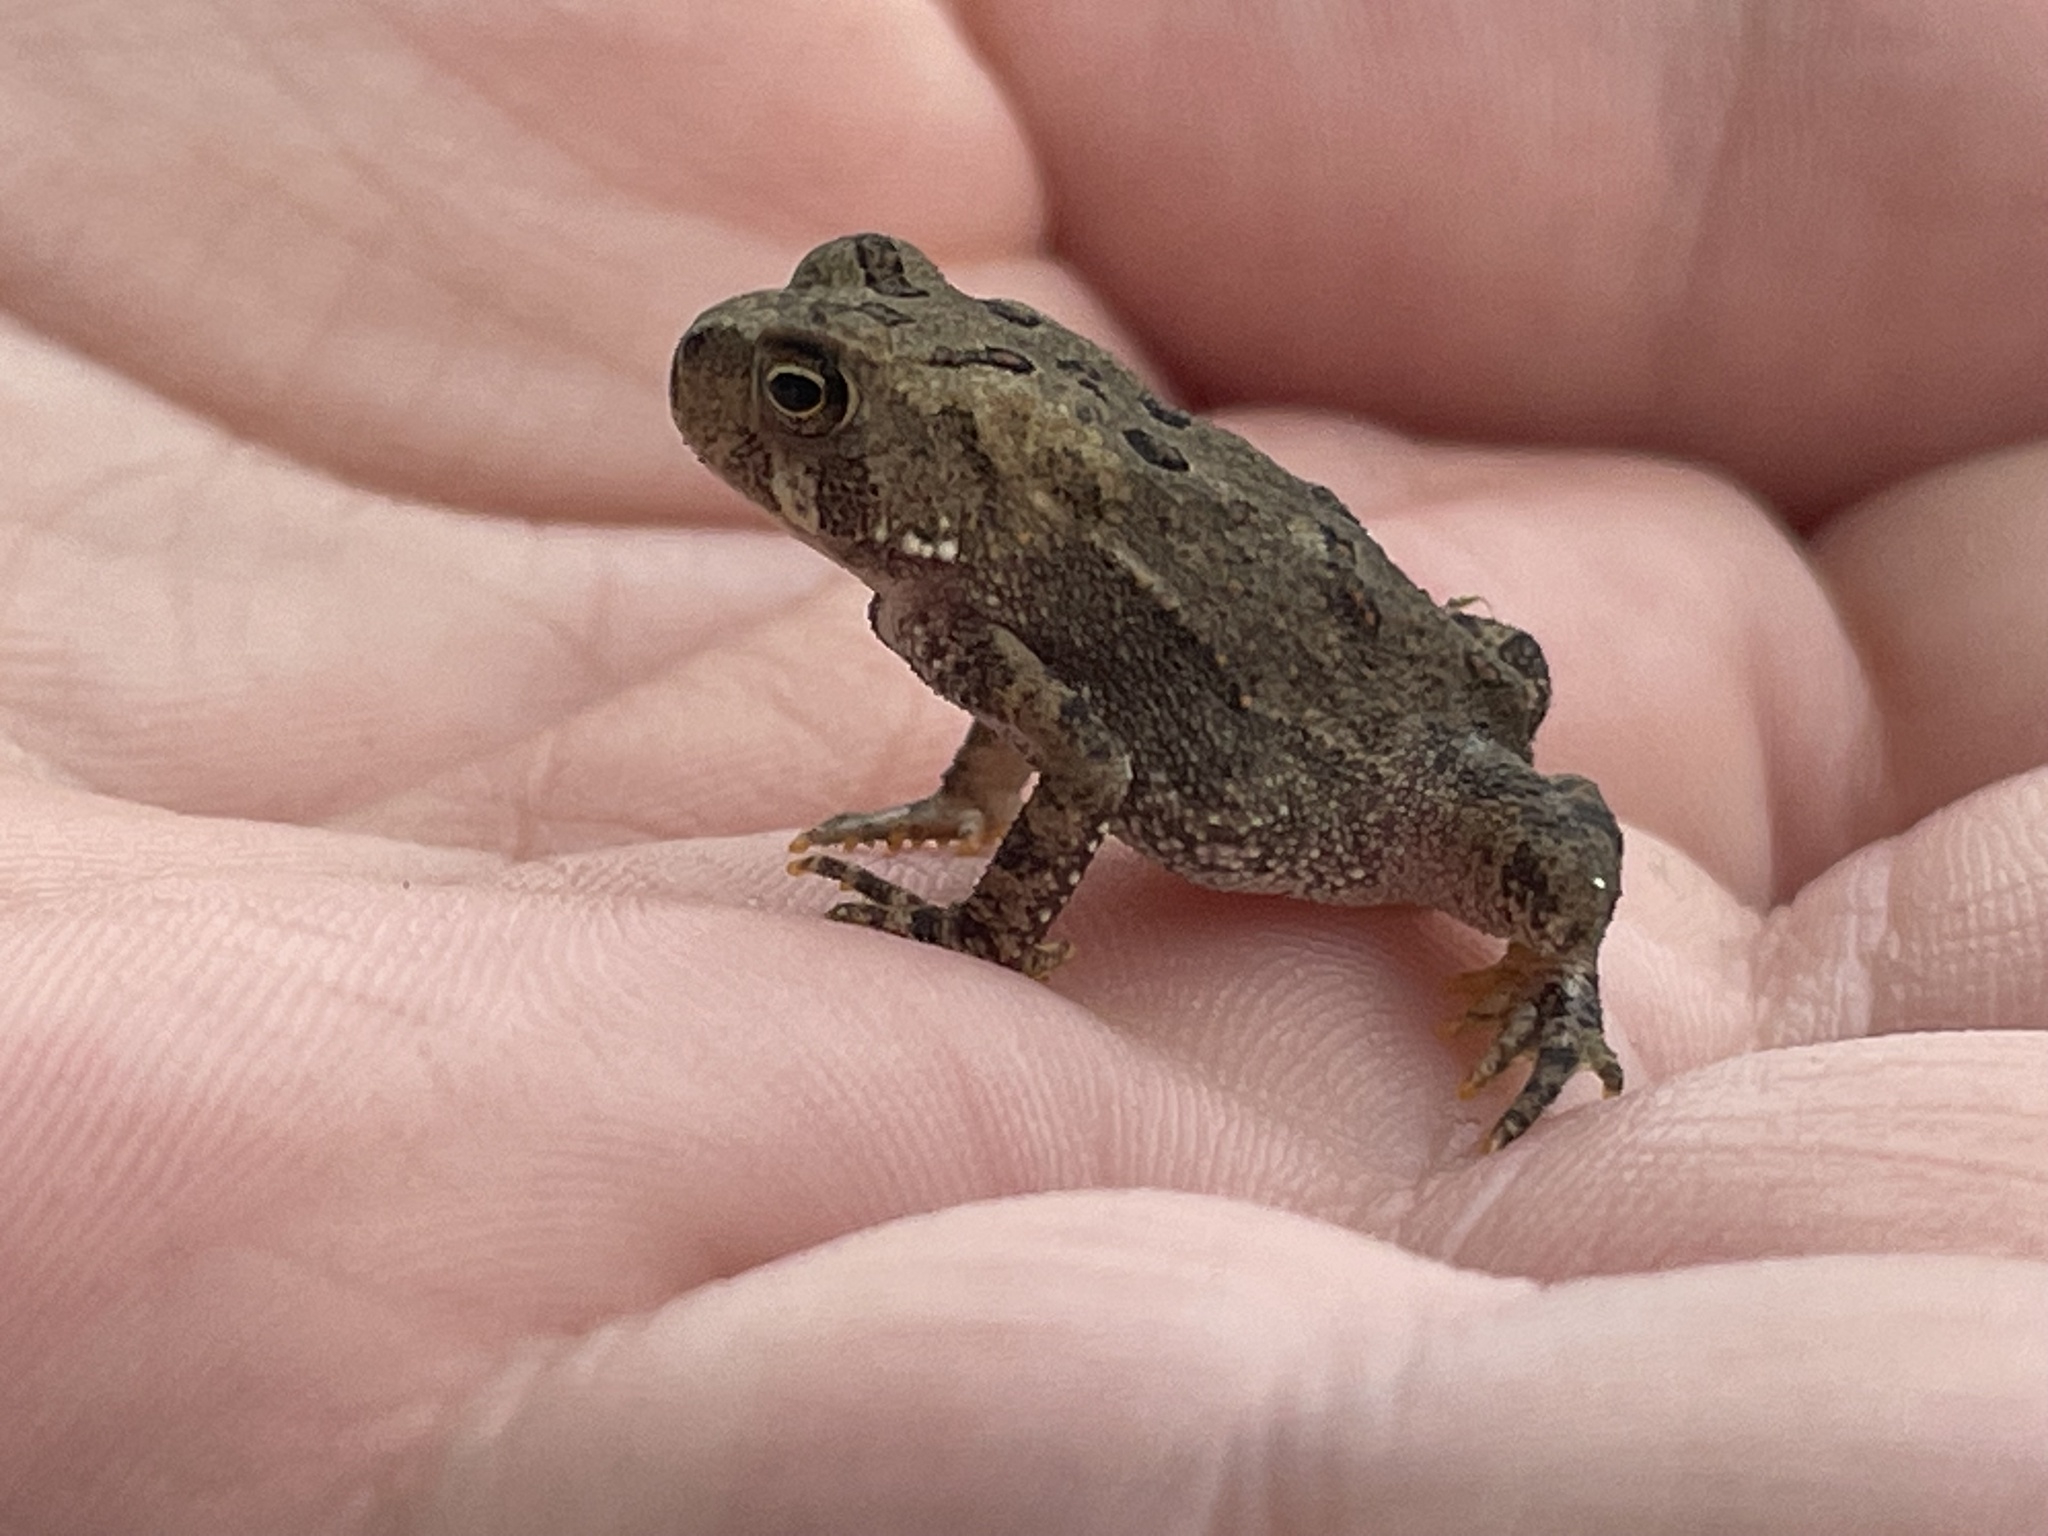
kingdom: Animalia
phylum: Chordata
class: Amphibia
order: Anura
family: Bufonidae
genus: Anaxyrus
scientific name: Anaxyrus americanus
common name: American toad
